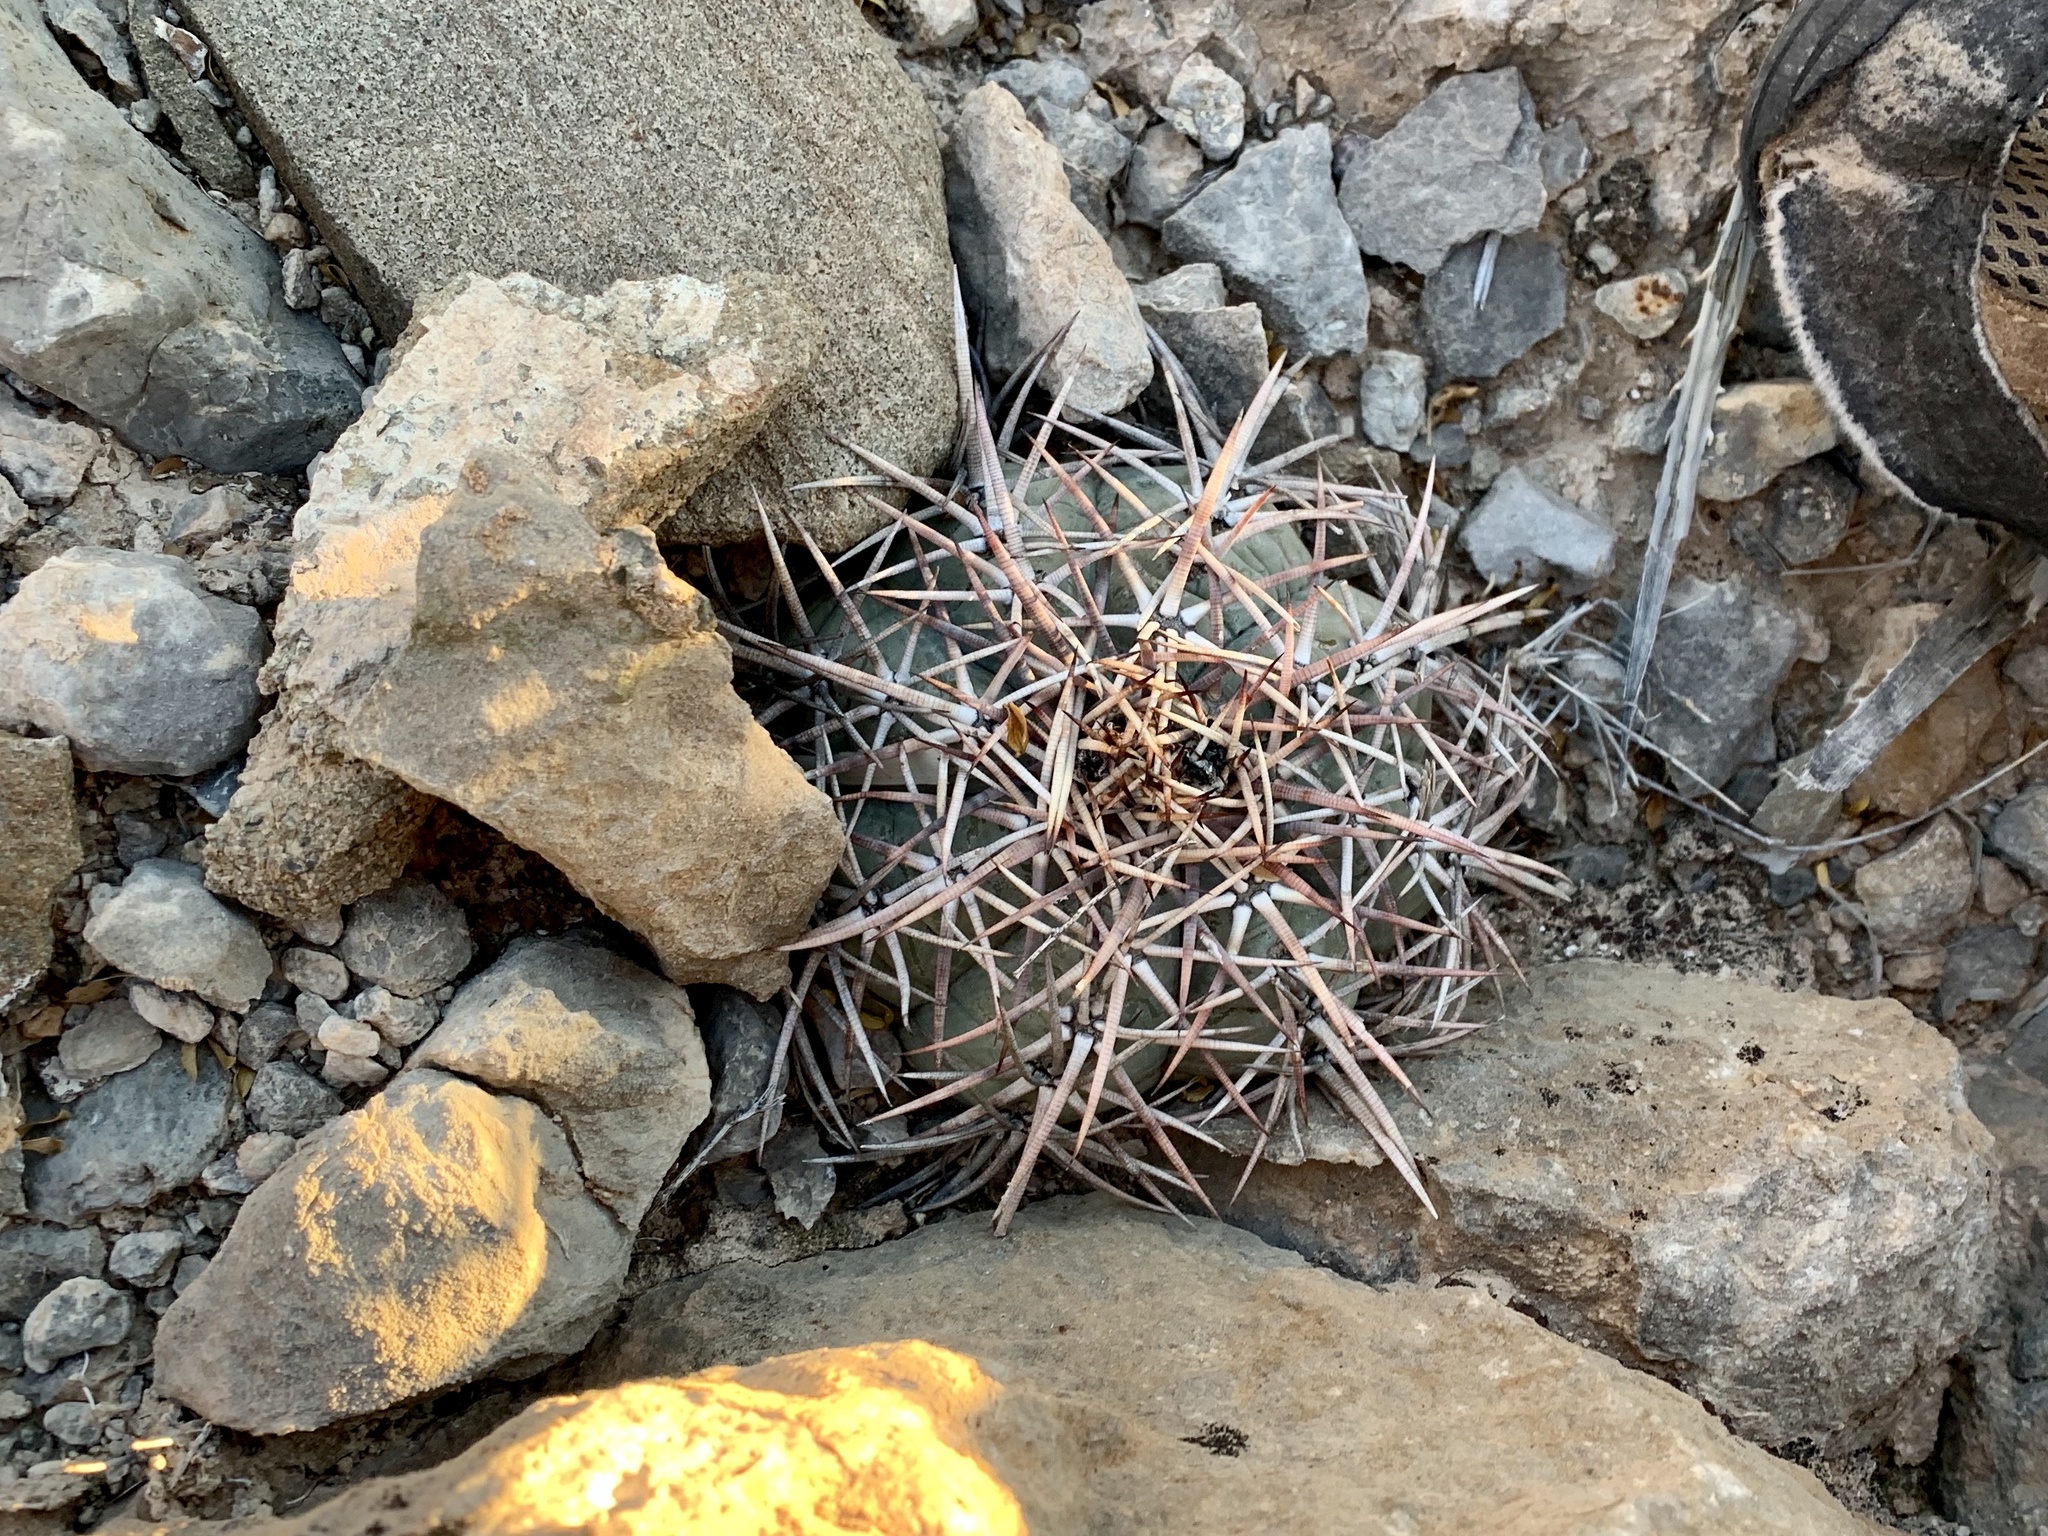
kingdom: Plantae
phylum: Tracheophyta
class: Magnoliopsida
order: Caryophyllales
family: Cactaceae
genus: Echinocactus
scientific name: Echinocactus horizonthalonius
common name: Devilshead
